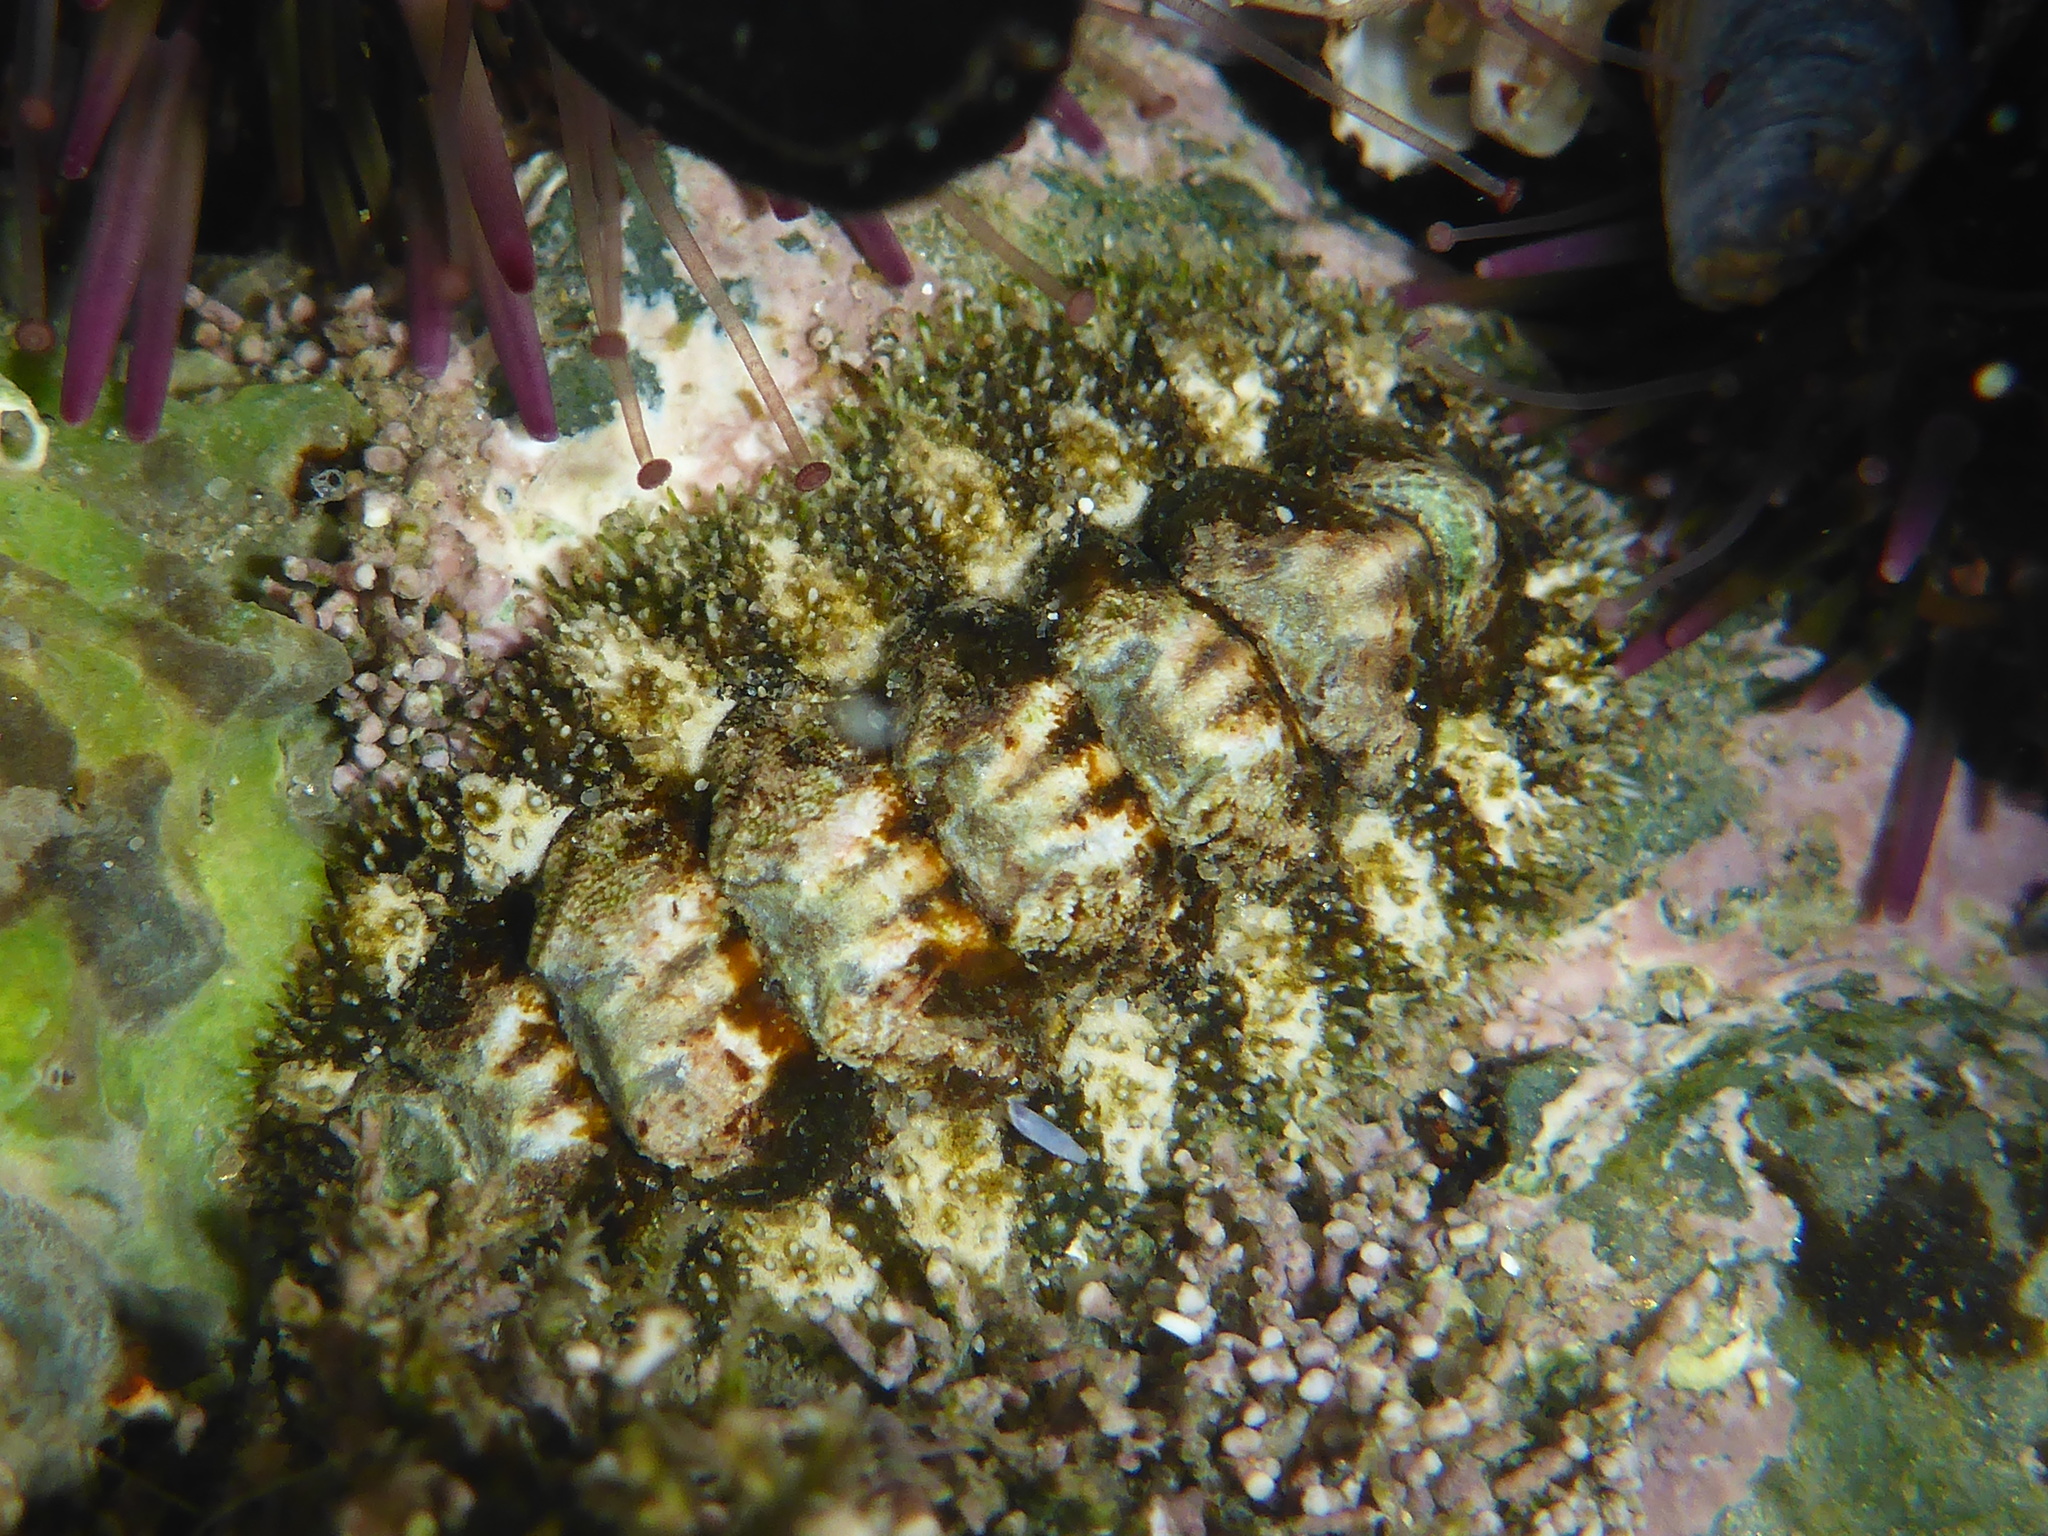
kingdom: Animalia
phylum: Mollusca
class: Polyplacophora
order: Chitonida
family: Tonicellidae
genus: Nuttallina
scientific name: Nuttallina californica
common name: California nuttall chiton
